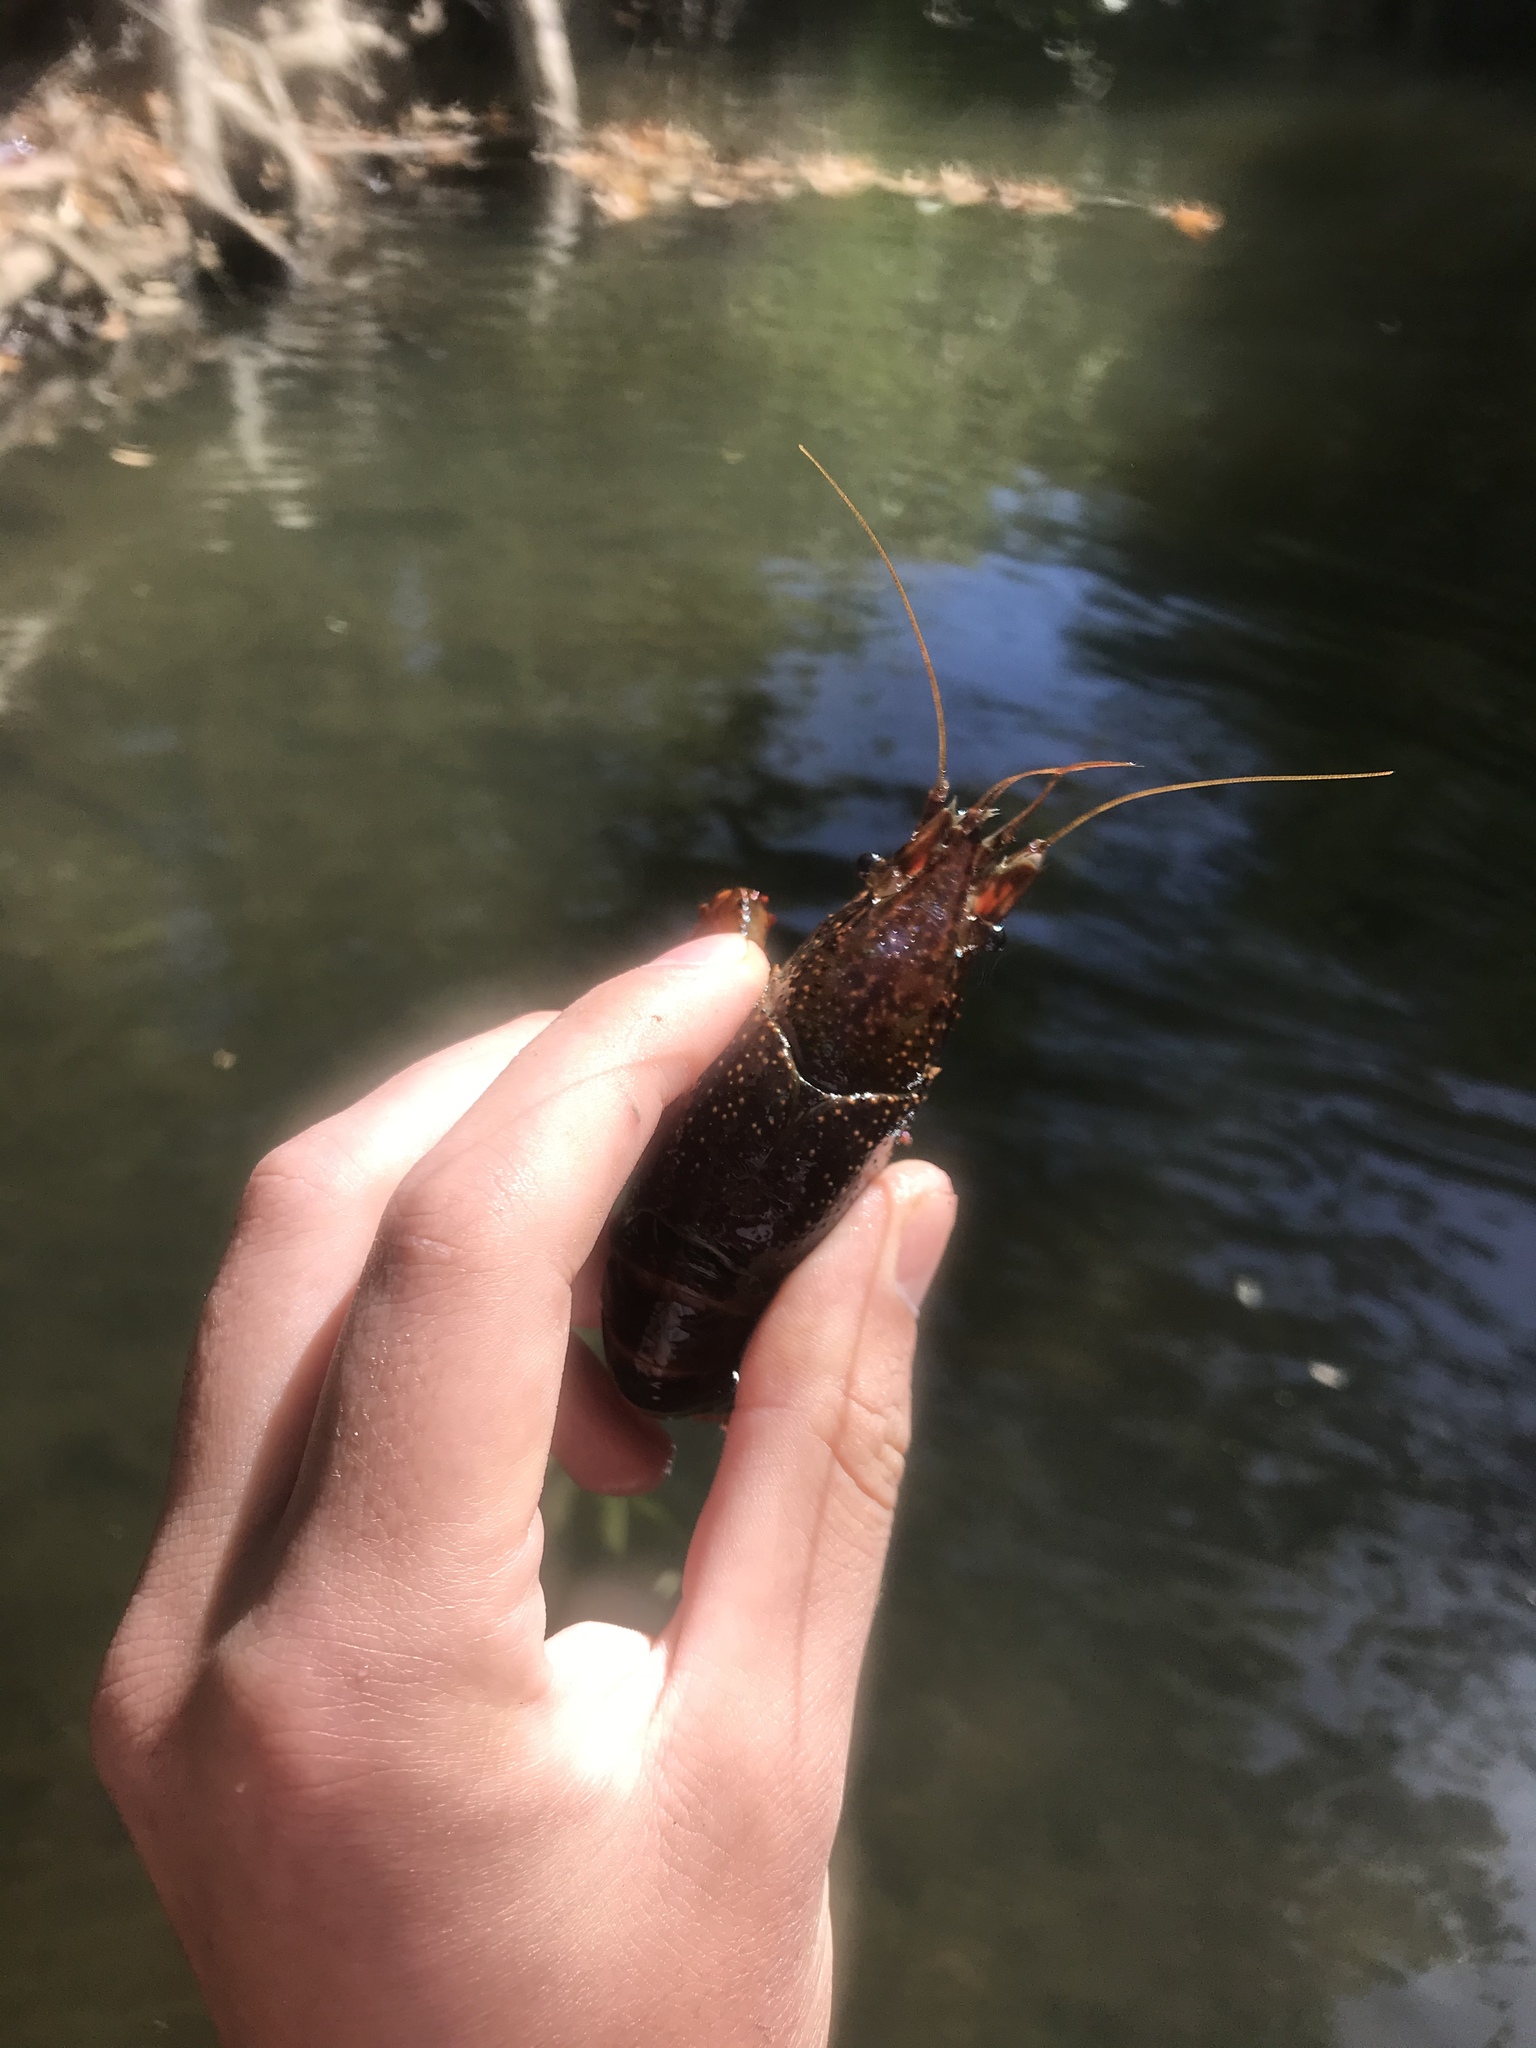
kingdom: Animalia
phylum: Arthropoda
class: Malacostraca
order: Decapoda
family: Cambaridae
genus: Procambarus
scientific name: Procambarus clarkii
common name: Red swamp crayfish
